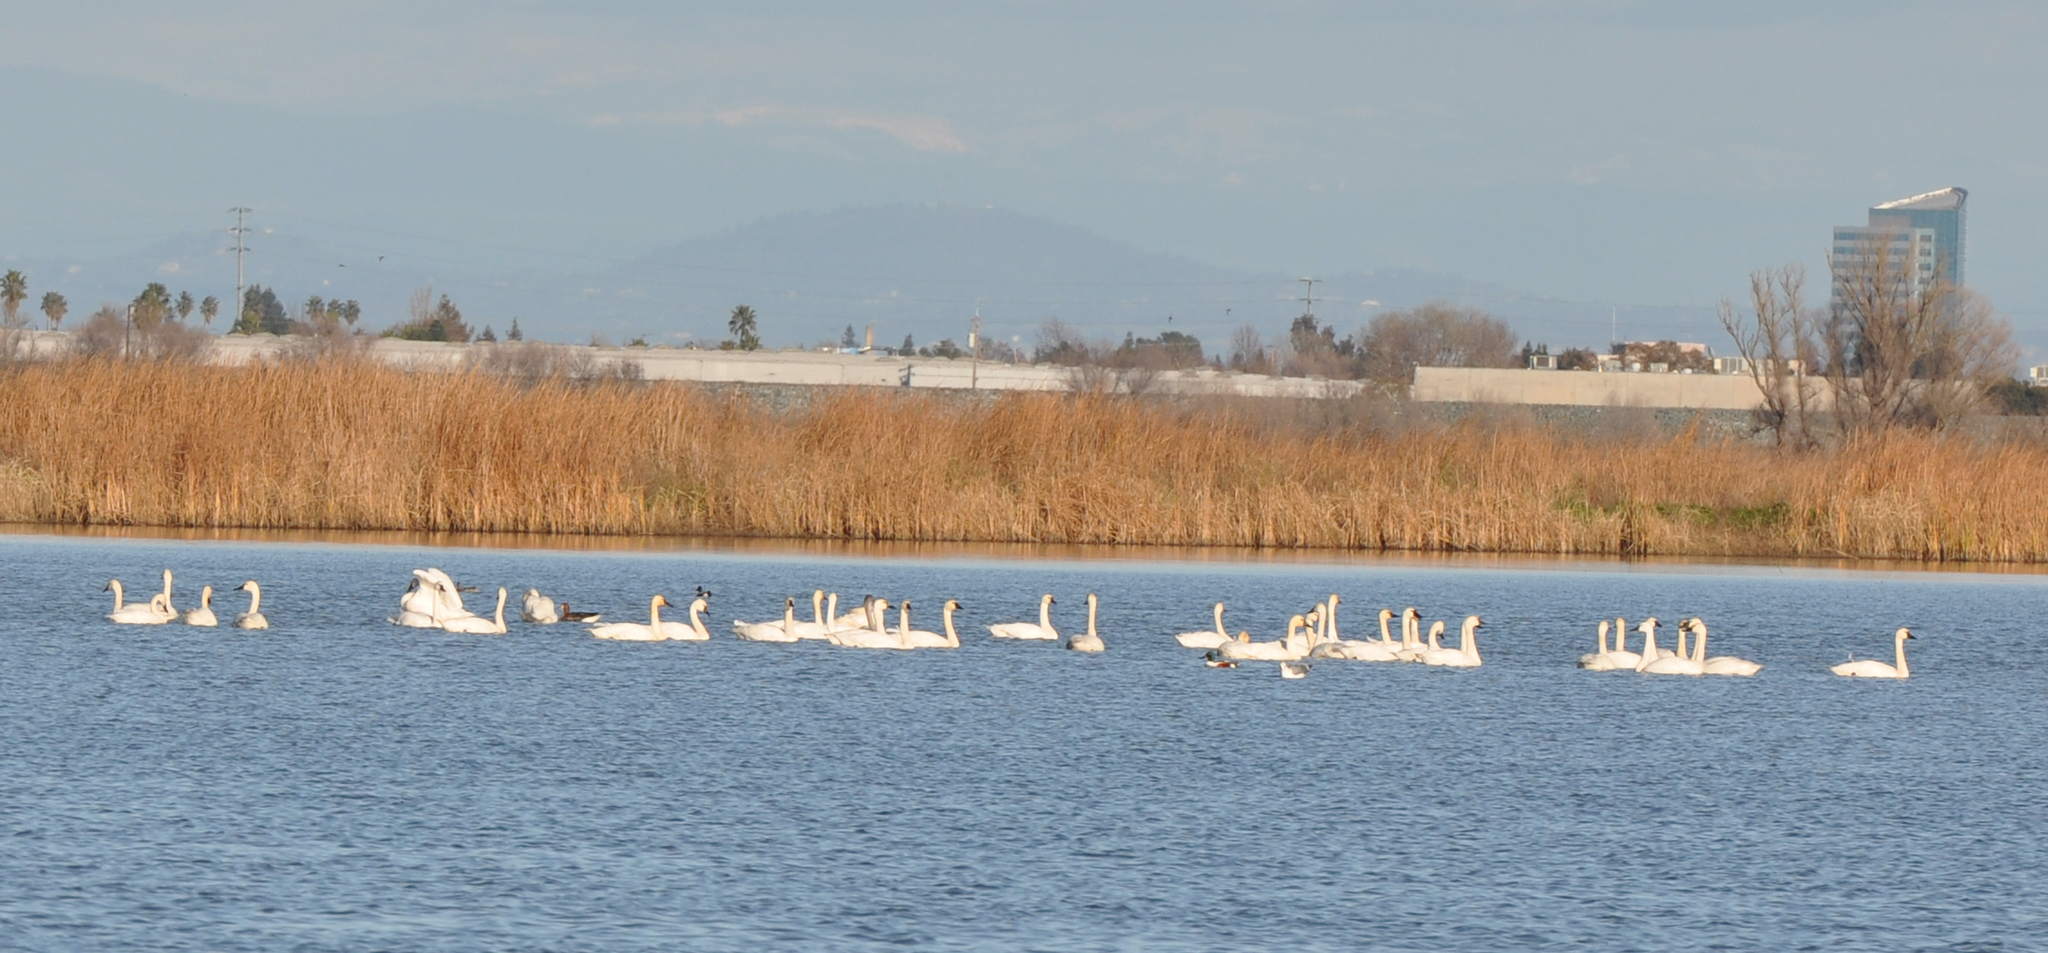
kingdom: Animalia
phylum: Chordata
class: Aves
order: Anseriformes
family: Anatidae
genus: Cygnus
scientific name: Cygnus columbianus
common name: Tundra swan
